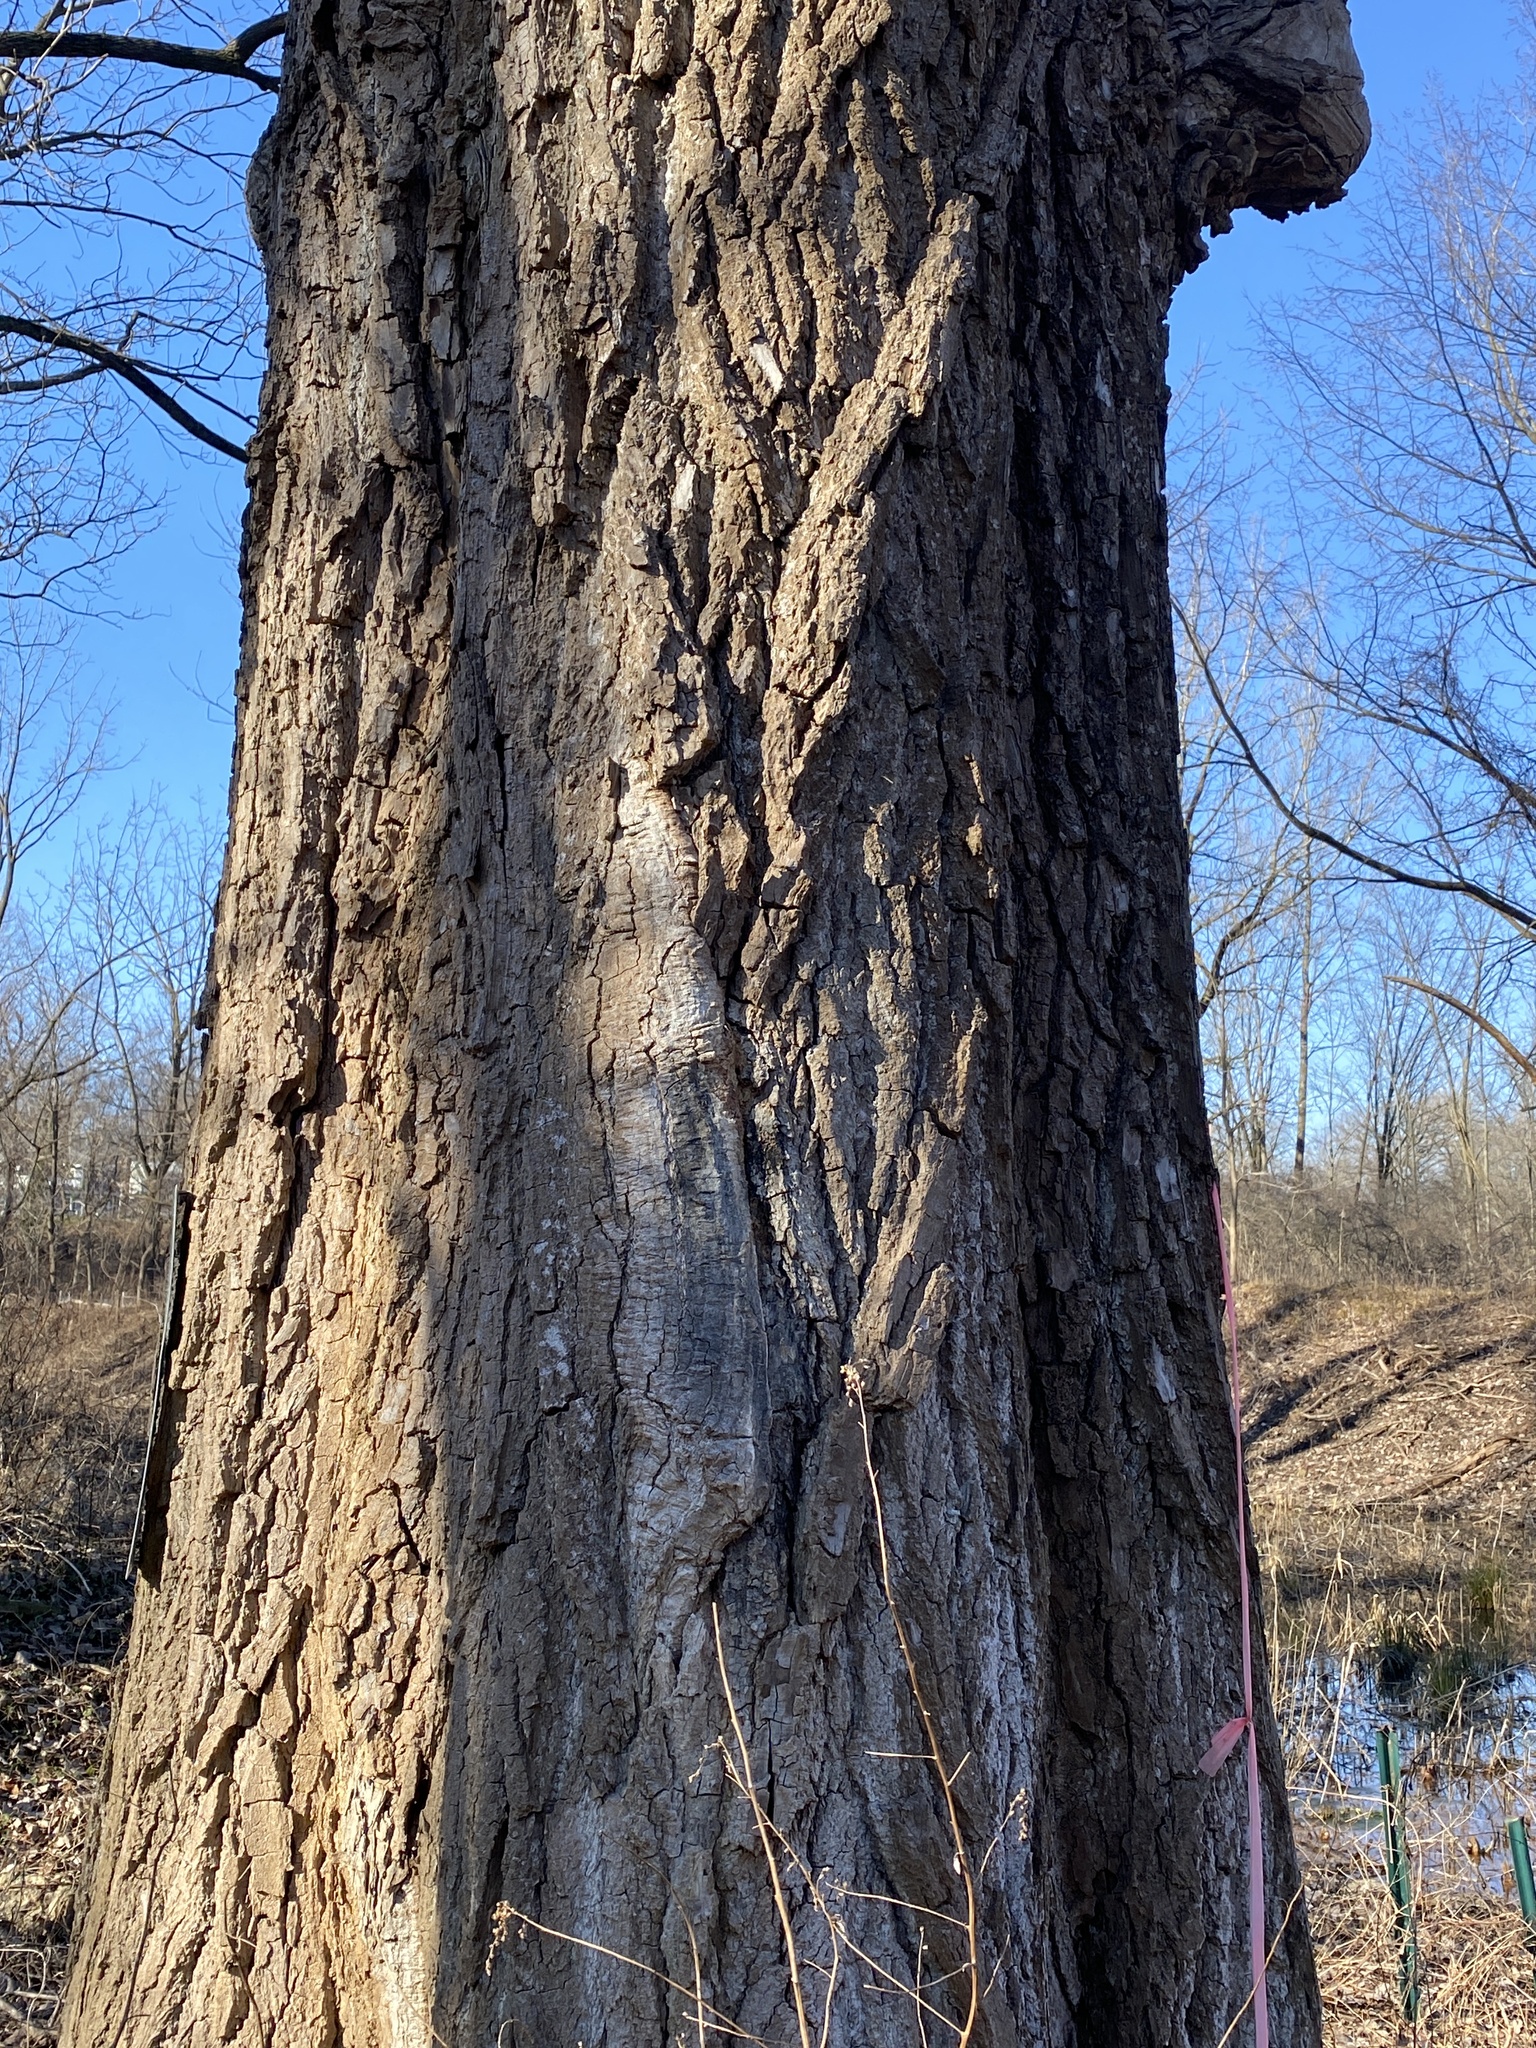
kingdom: Plantae
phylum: Tracheophyta
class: Magnoliopsida
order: Malpighiales
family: Salicaceae
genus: Populus
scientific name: Populus deltoides
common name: Eastern cottonwood
